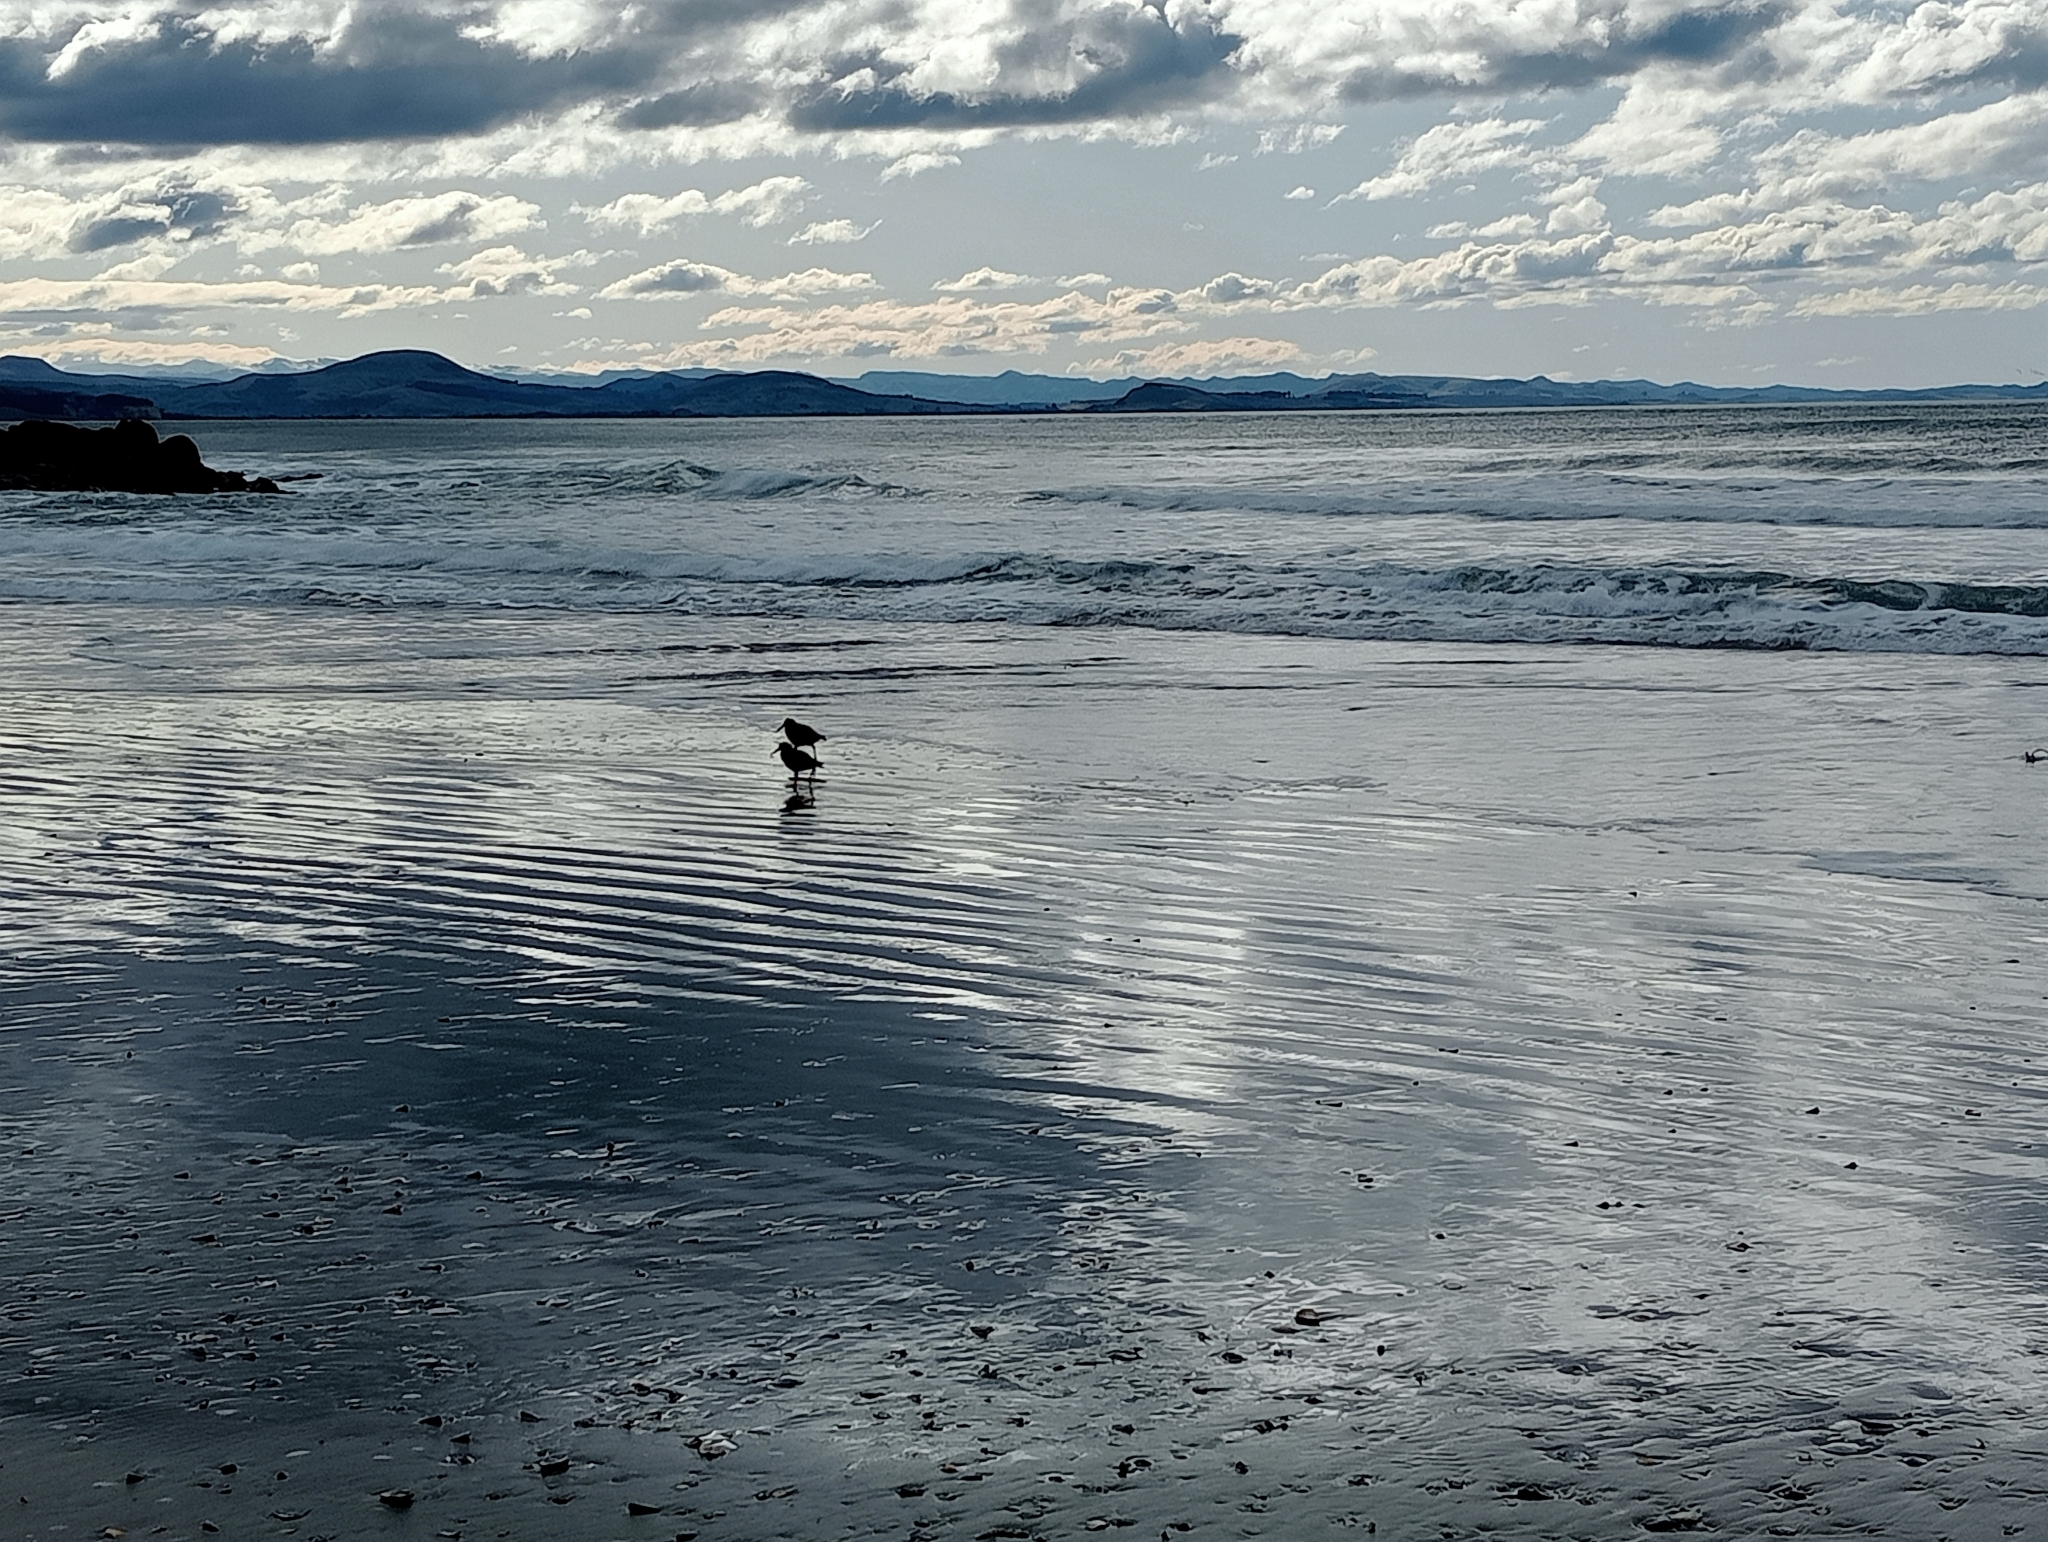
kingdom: Animalia
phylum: Chordata
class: Aves
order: Charadriiformes
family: Haematopodidae
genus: Haematopus
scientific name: Haematopus unicolor
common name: Variable oystercatcher
